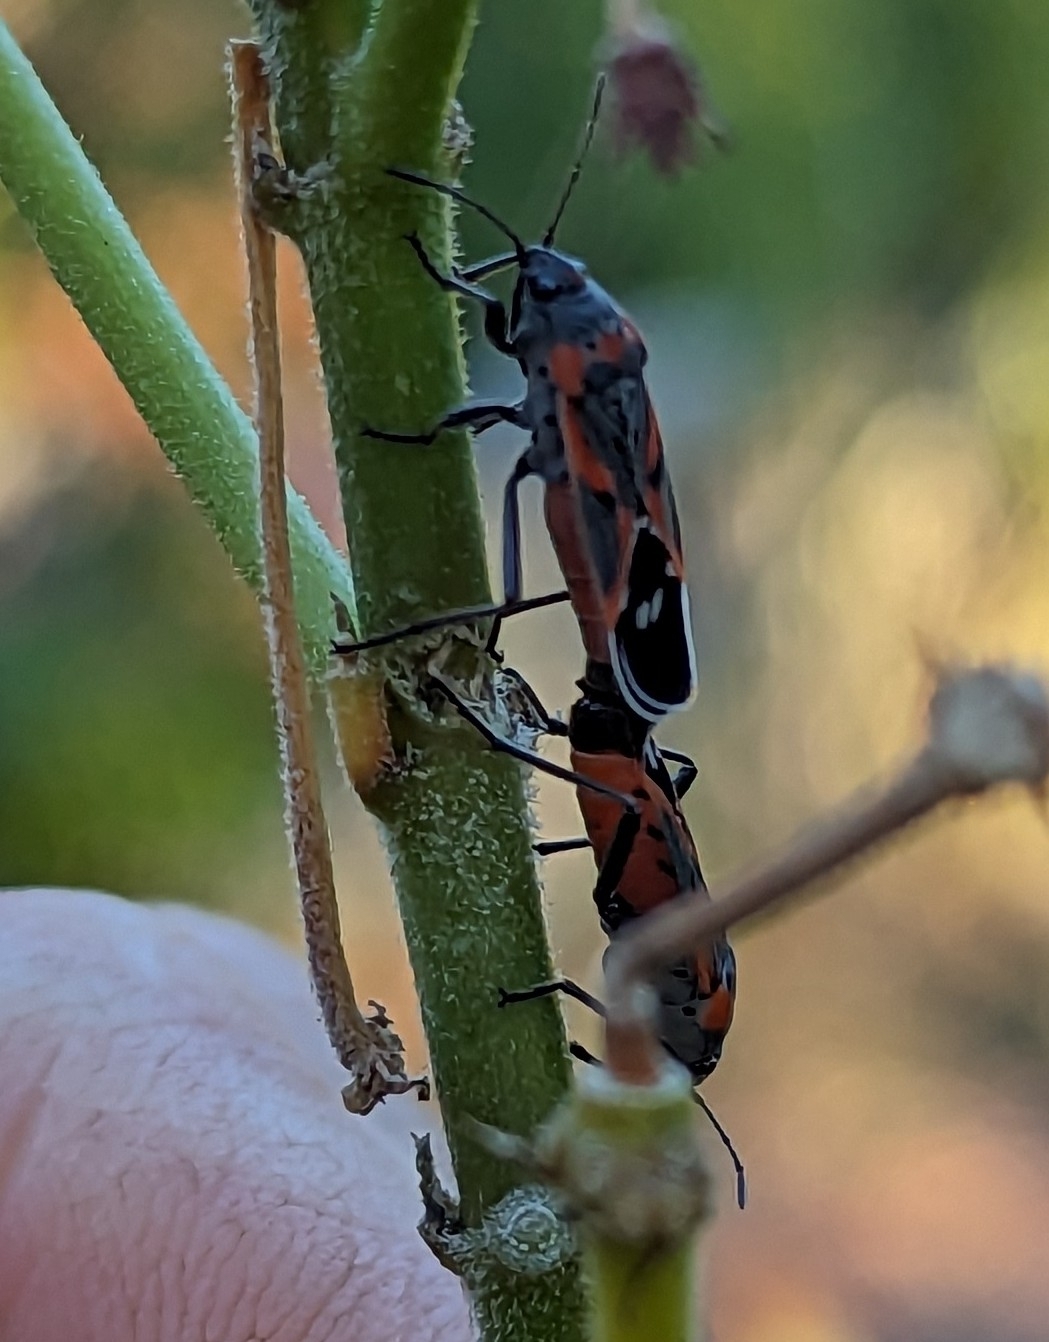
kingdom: Animalia
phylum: Arthropoda
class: Insecta
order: Hemiptera
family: Lygaeidae
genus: Lygaeus
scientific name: Lygaeus kalmii
